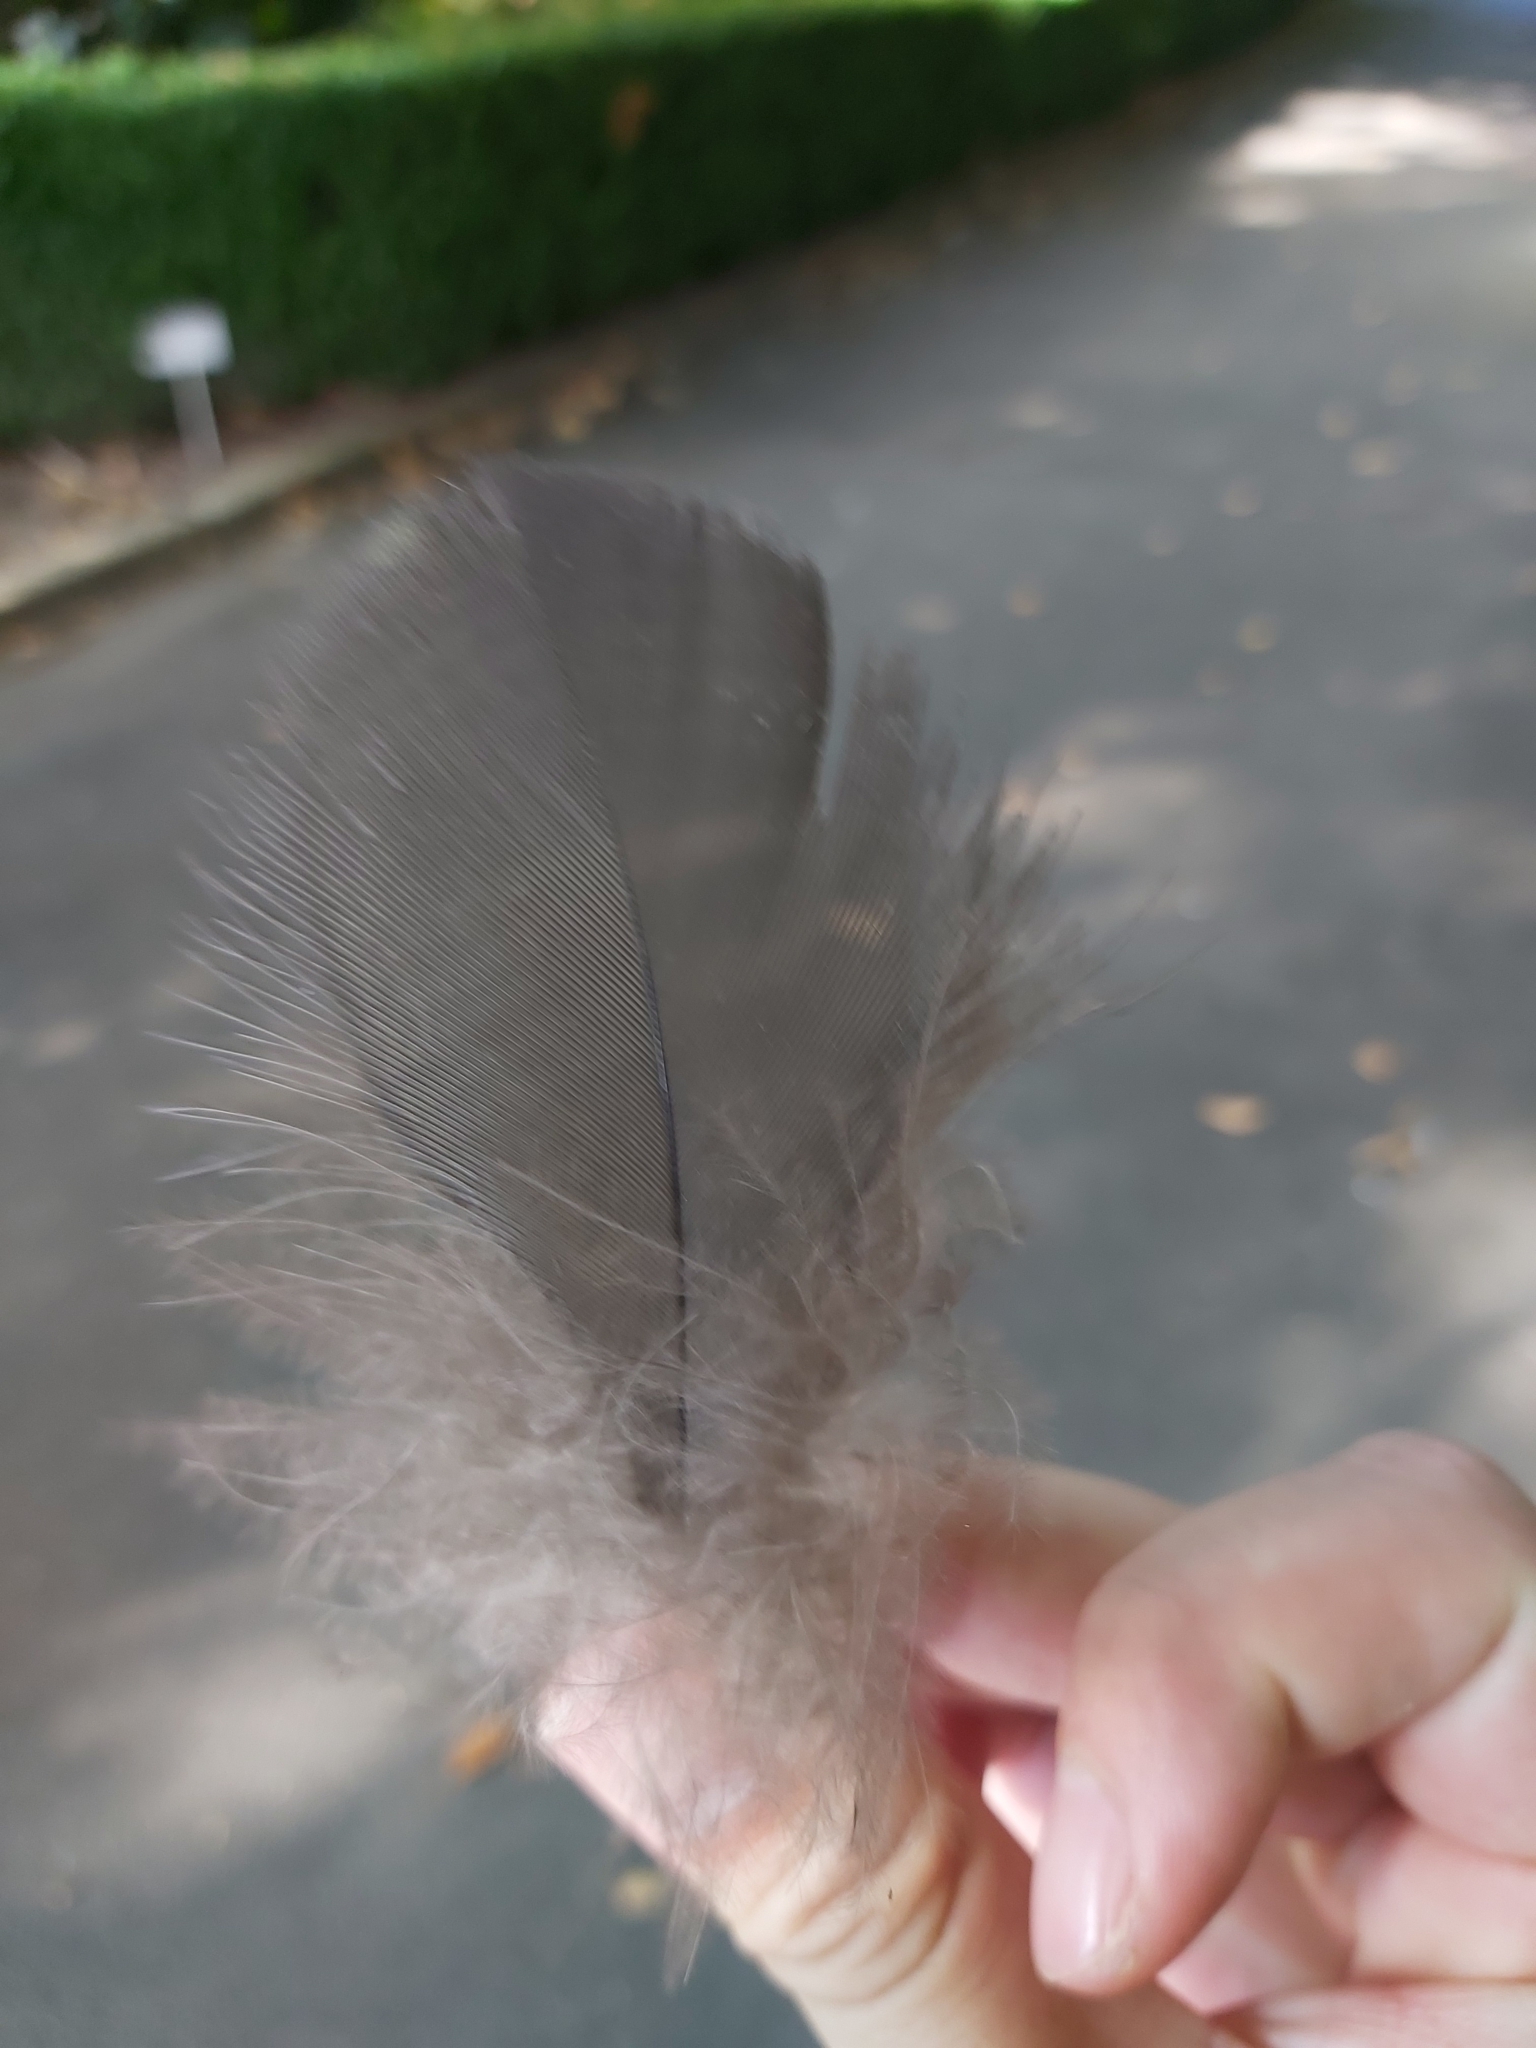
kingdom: Animalia
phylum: Chordata
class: Aves
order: Galliformes
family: Megapodiidae
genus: Alectura
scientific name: Alectura lathami
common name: Australian brushturkey
